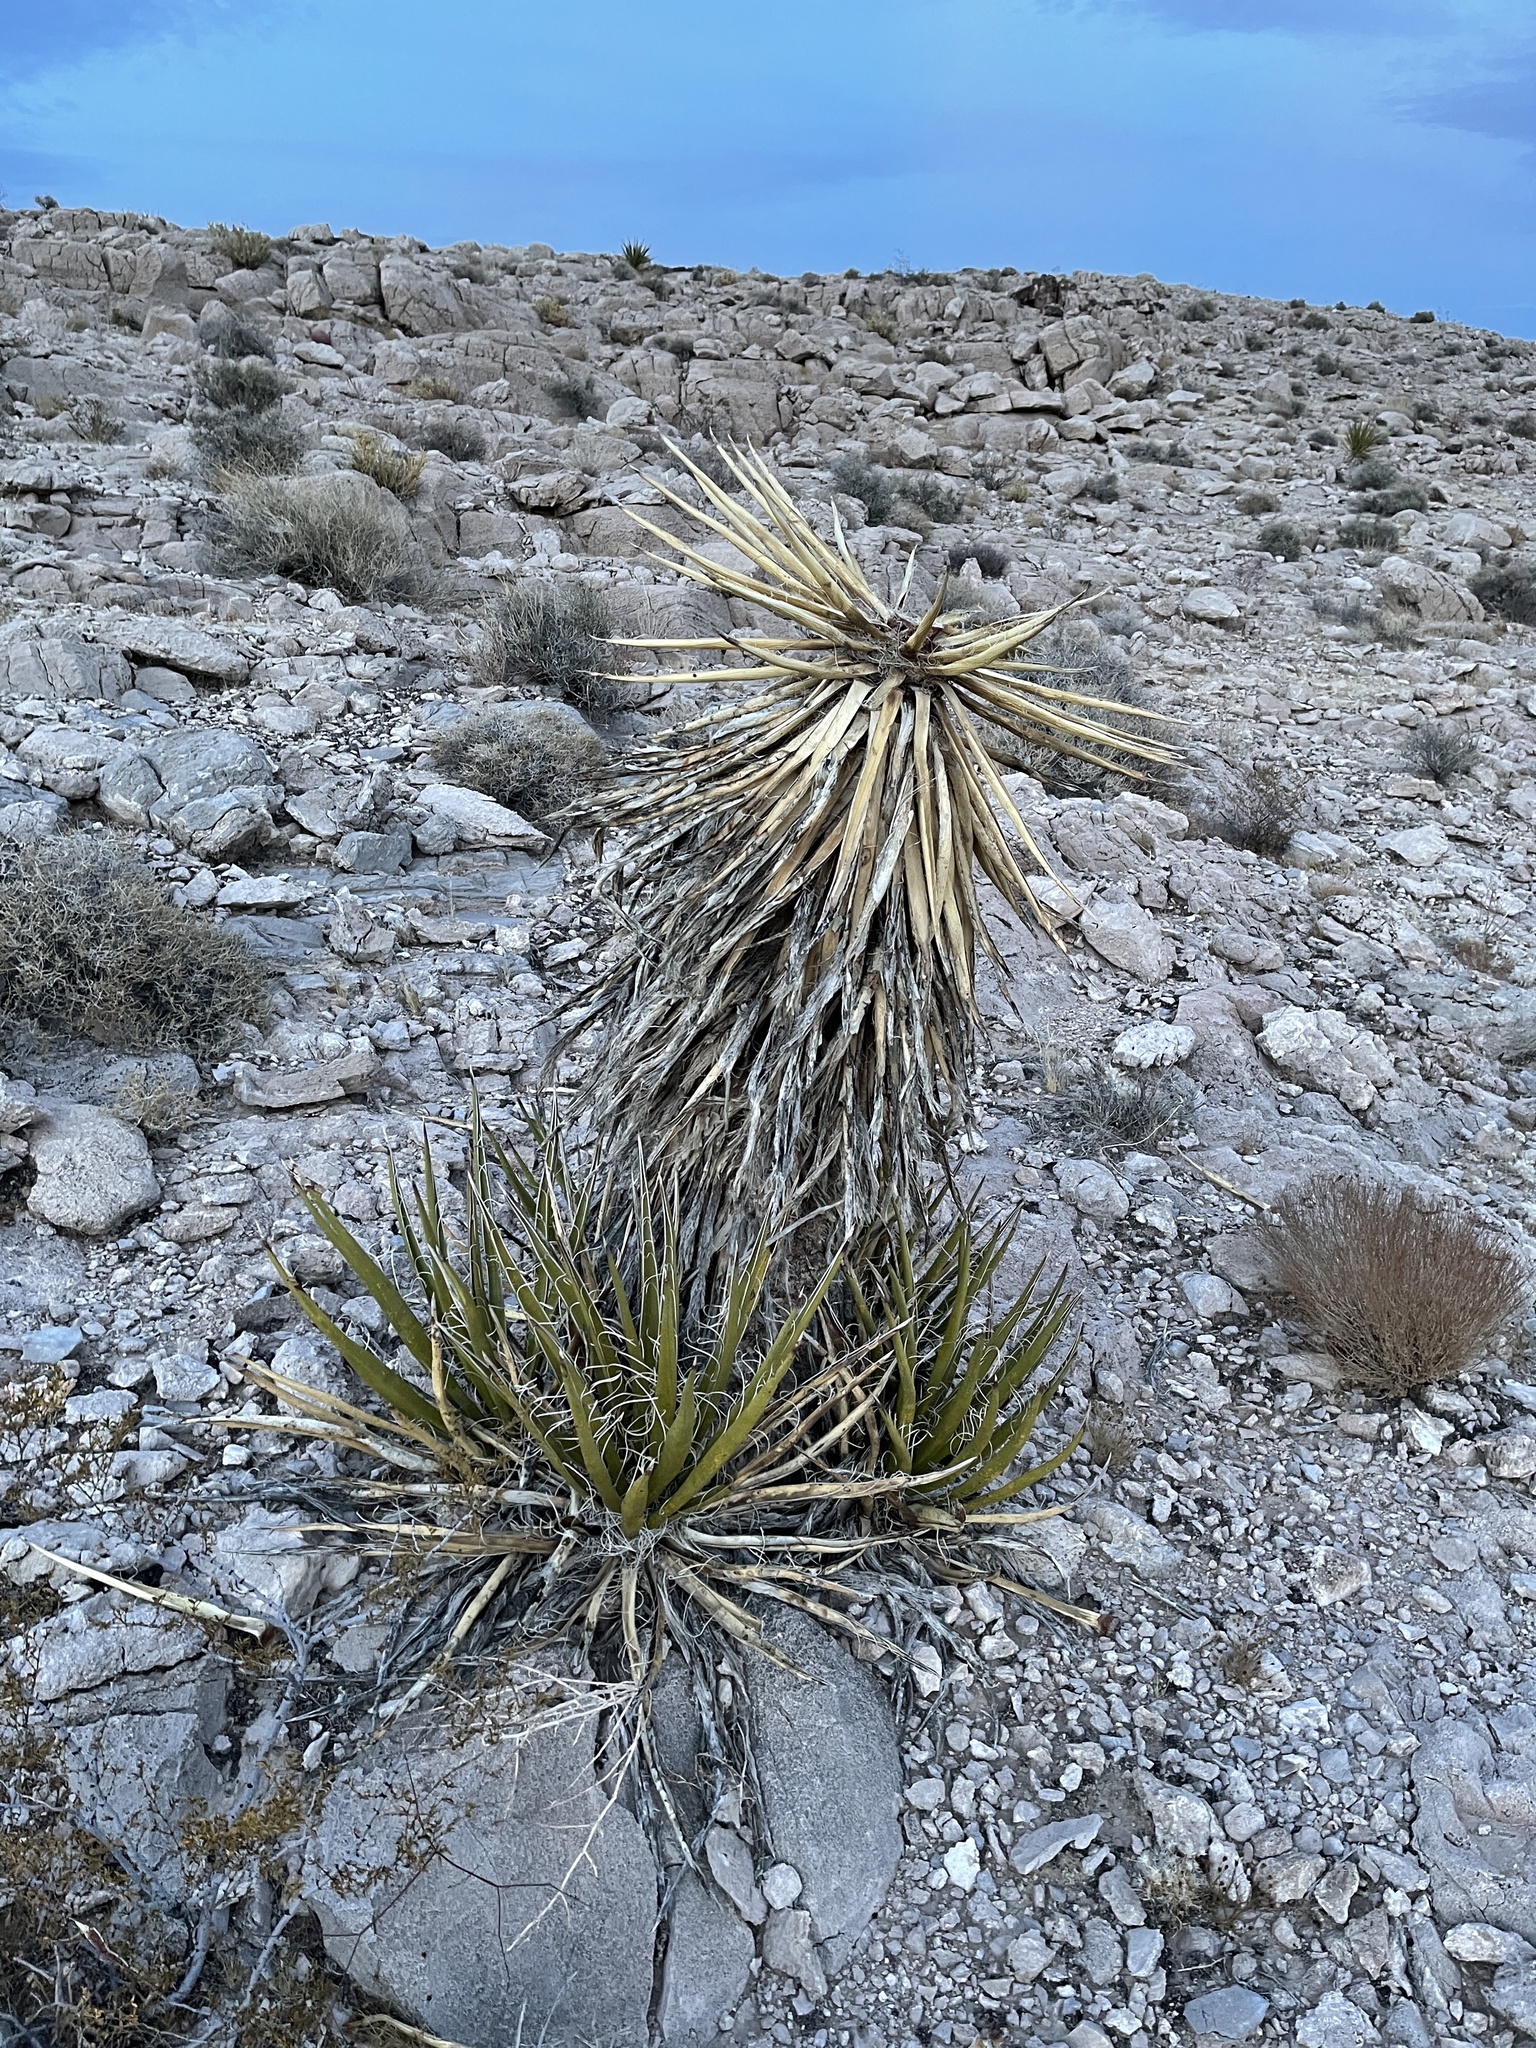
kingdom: Plantae
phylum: Tracheophyta
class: Liliopsida
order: Asparagales
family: Asparagaceae
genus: Yucca
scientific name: Yucca schidigera
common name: Mojave yucca
